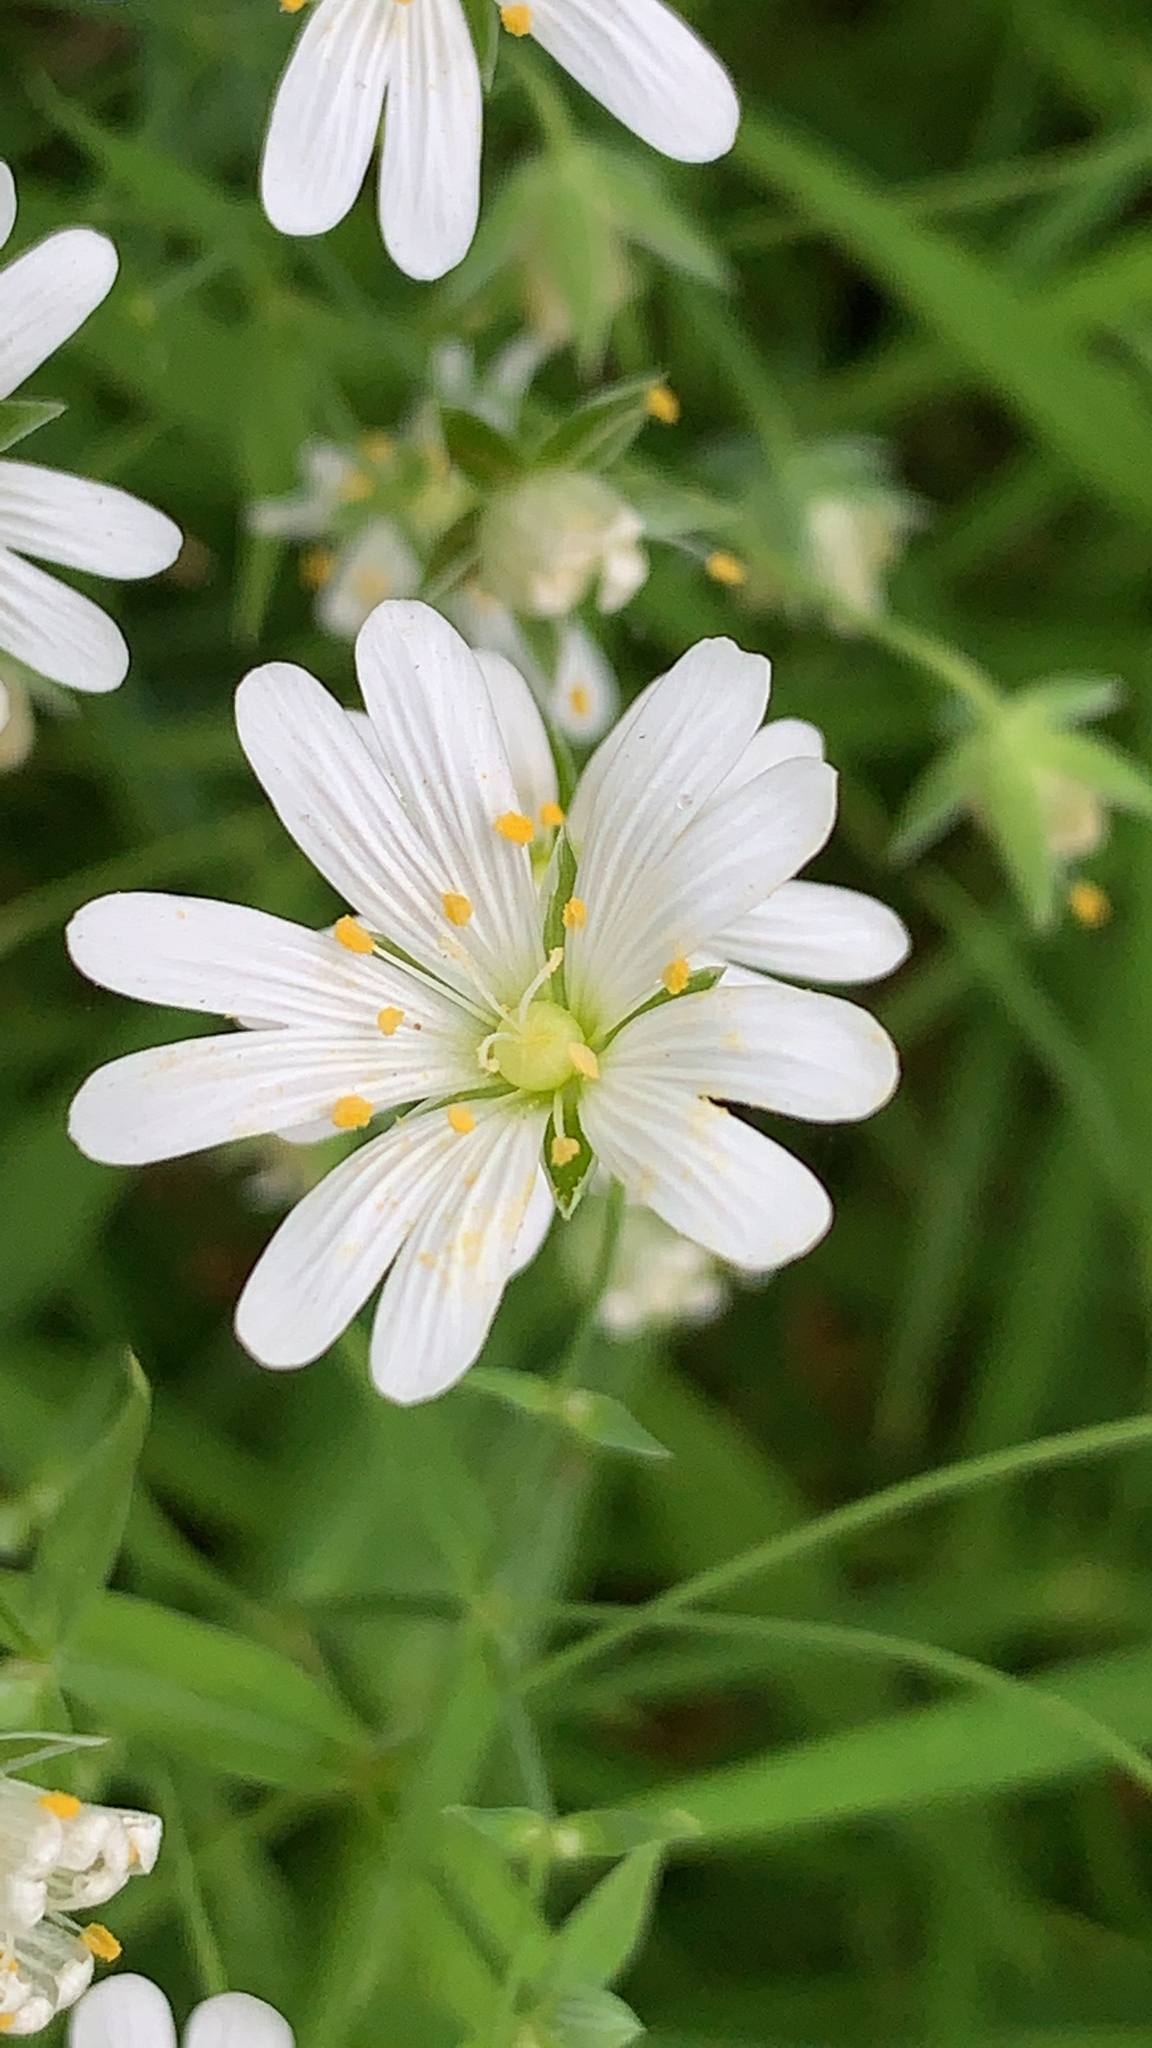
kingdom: Plantae
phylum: Tracheophyta
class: Magnoliopsida
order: Caryophyllales
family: Caryophyllaceae
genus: Rabelera
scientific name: Rabelera holostea
